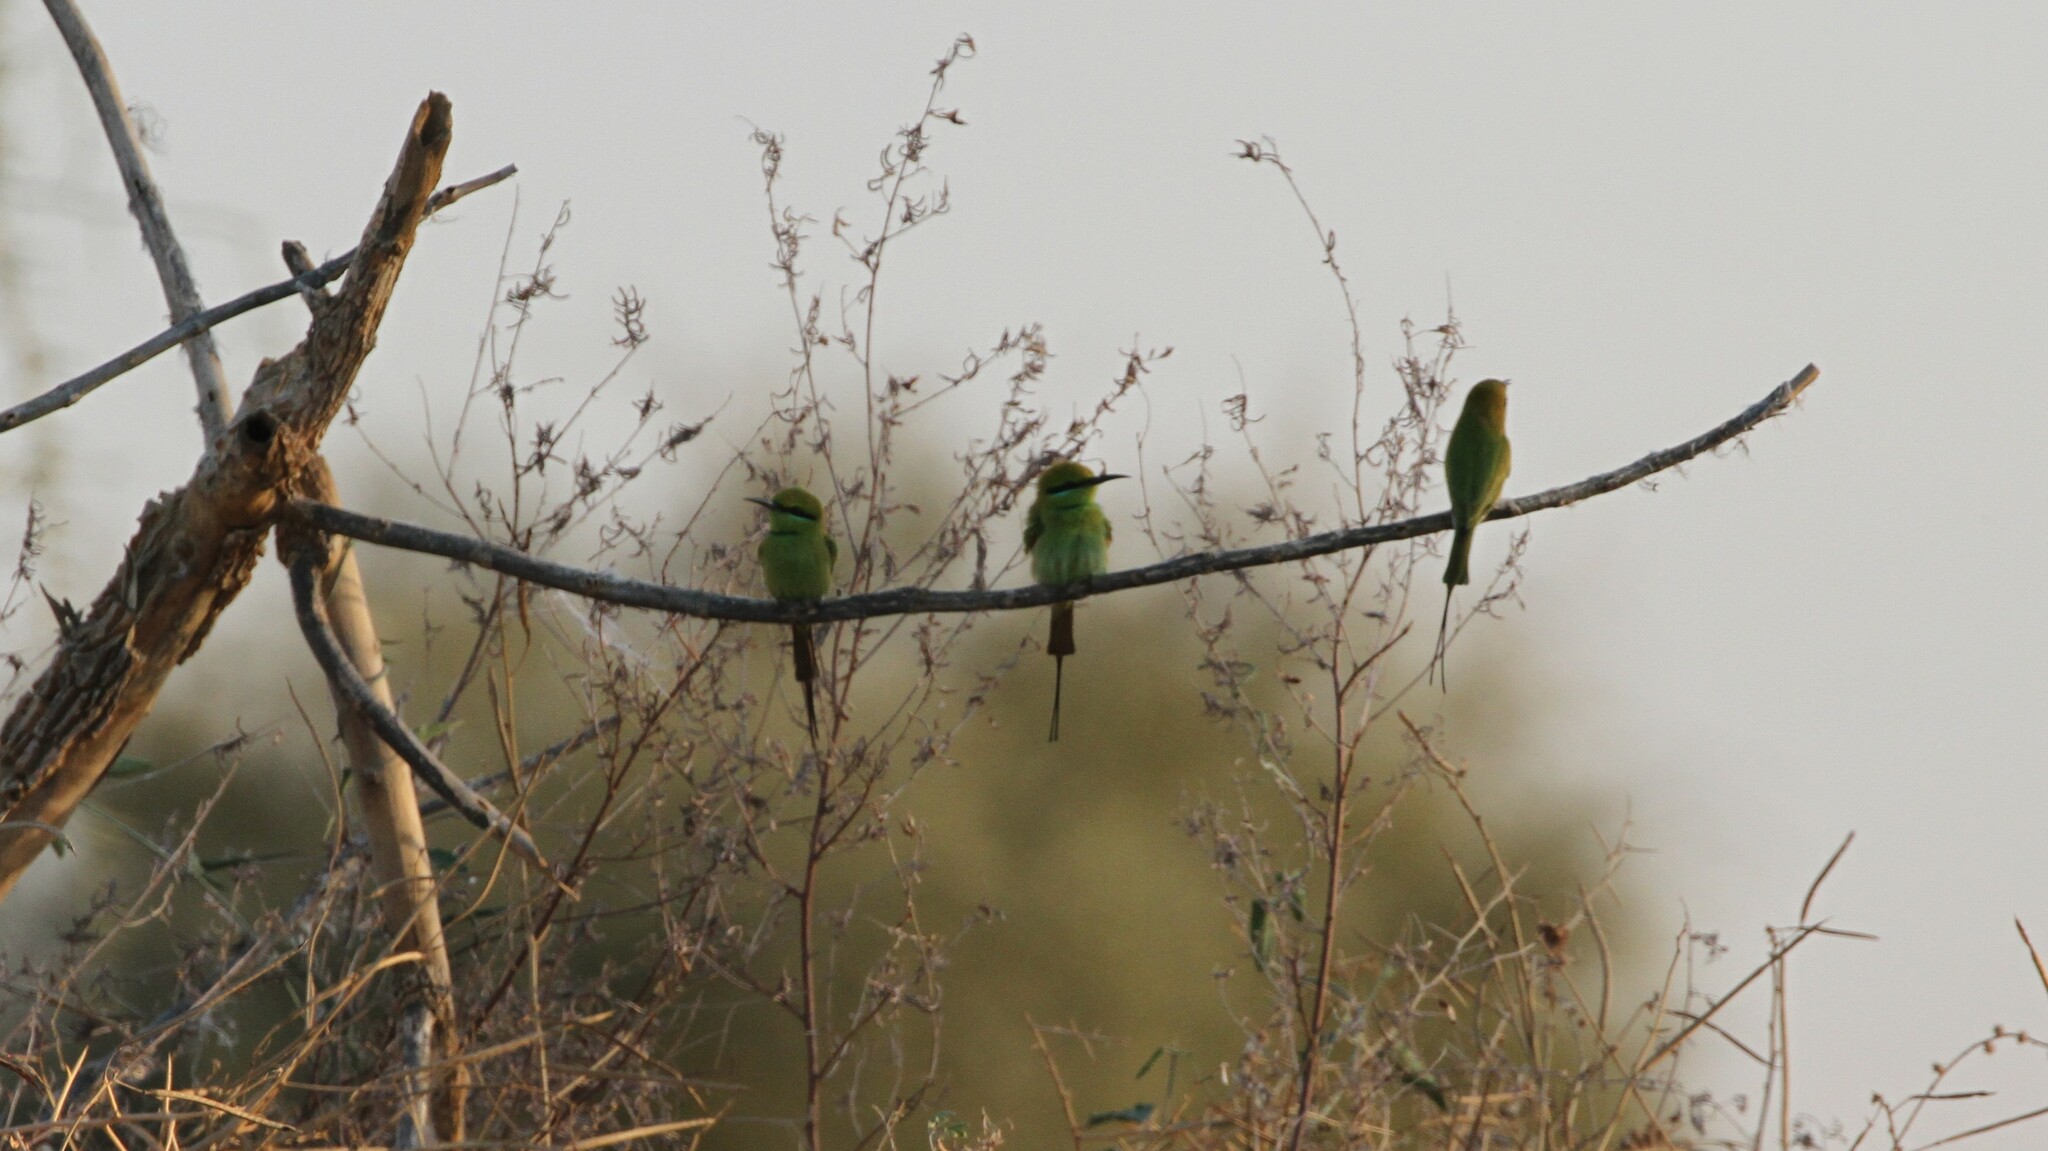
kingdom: Animalia
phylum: Chordata
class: Aves
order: Coraciiformes
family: Meropidae
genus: Merops
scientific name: Merops viridissimus
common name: African green bee-eater
